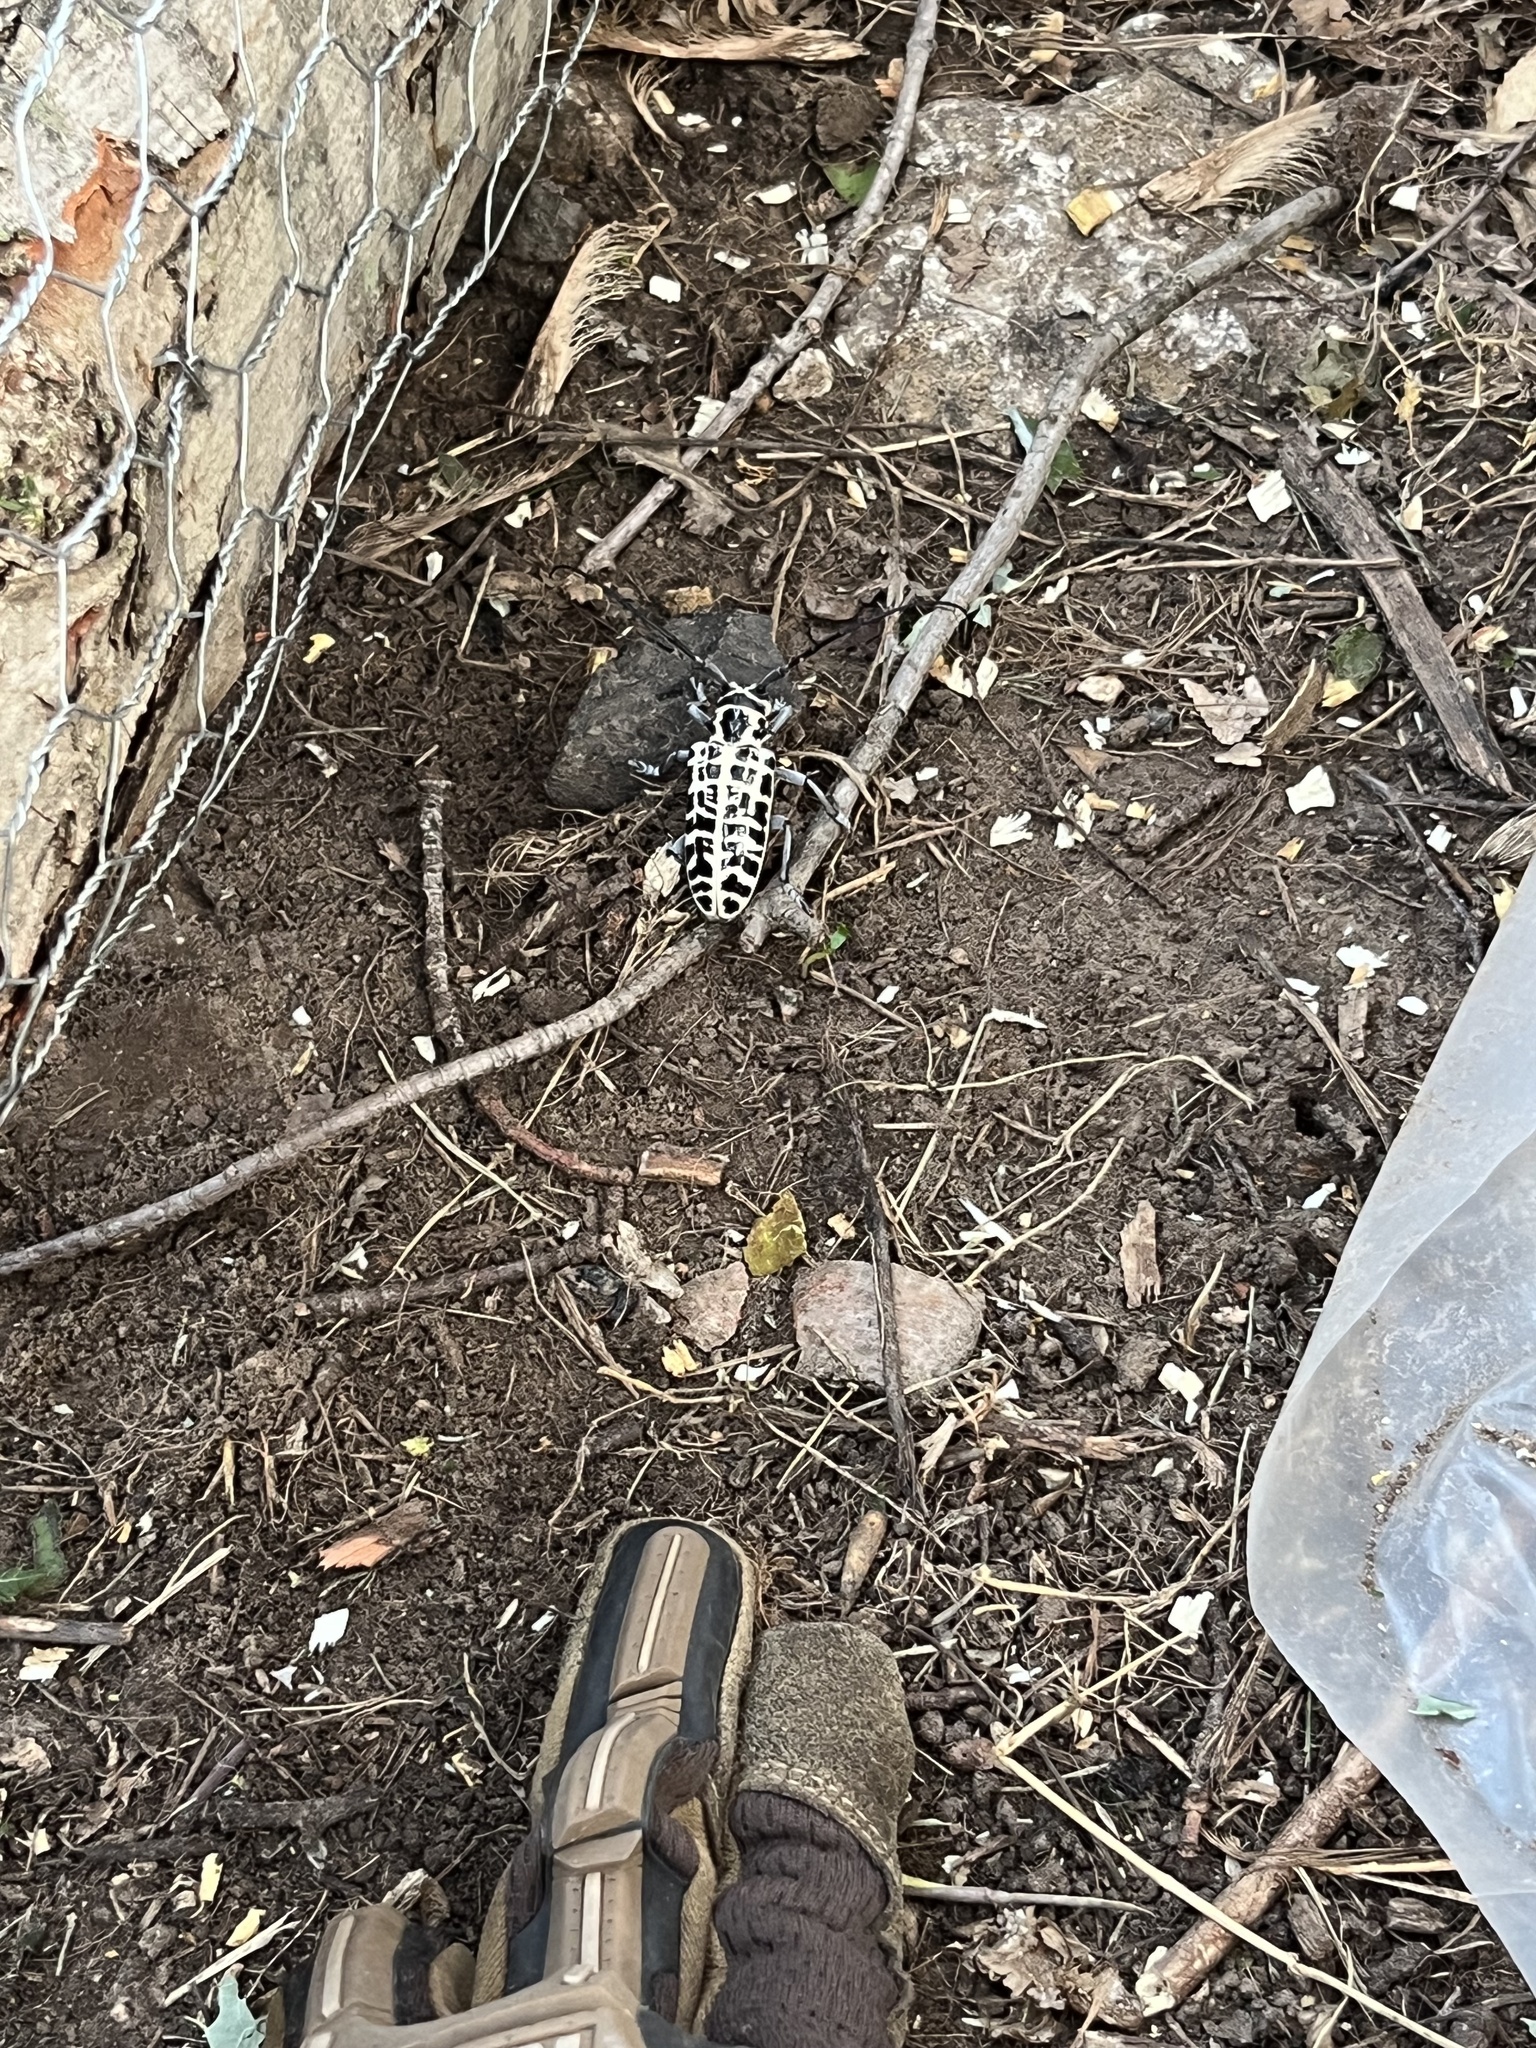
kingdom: Animalia
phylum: Arthropoda
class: Insecta
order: Coleoptera
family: Cerambycidae
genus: Plectrodera
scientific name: Plectrodera scalator
